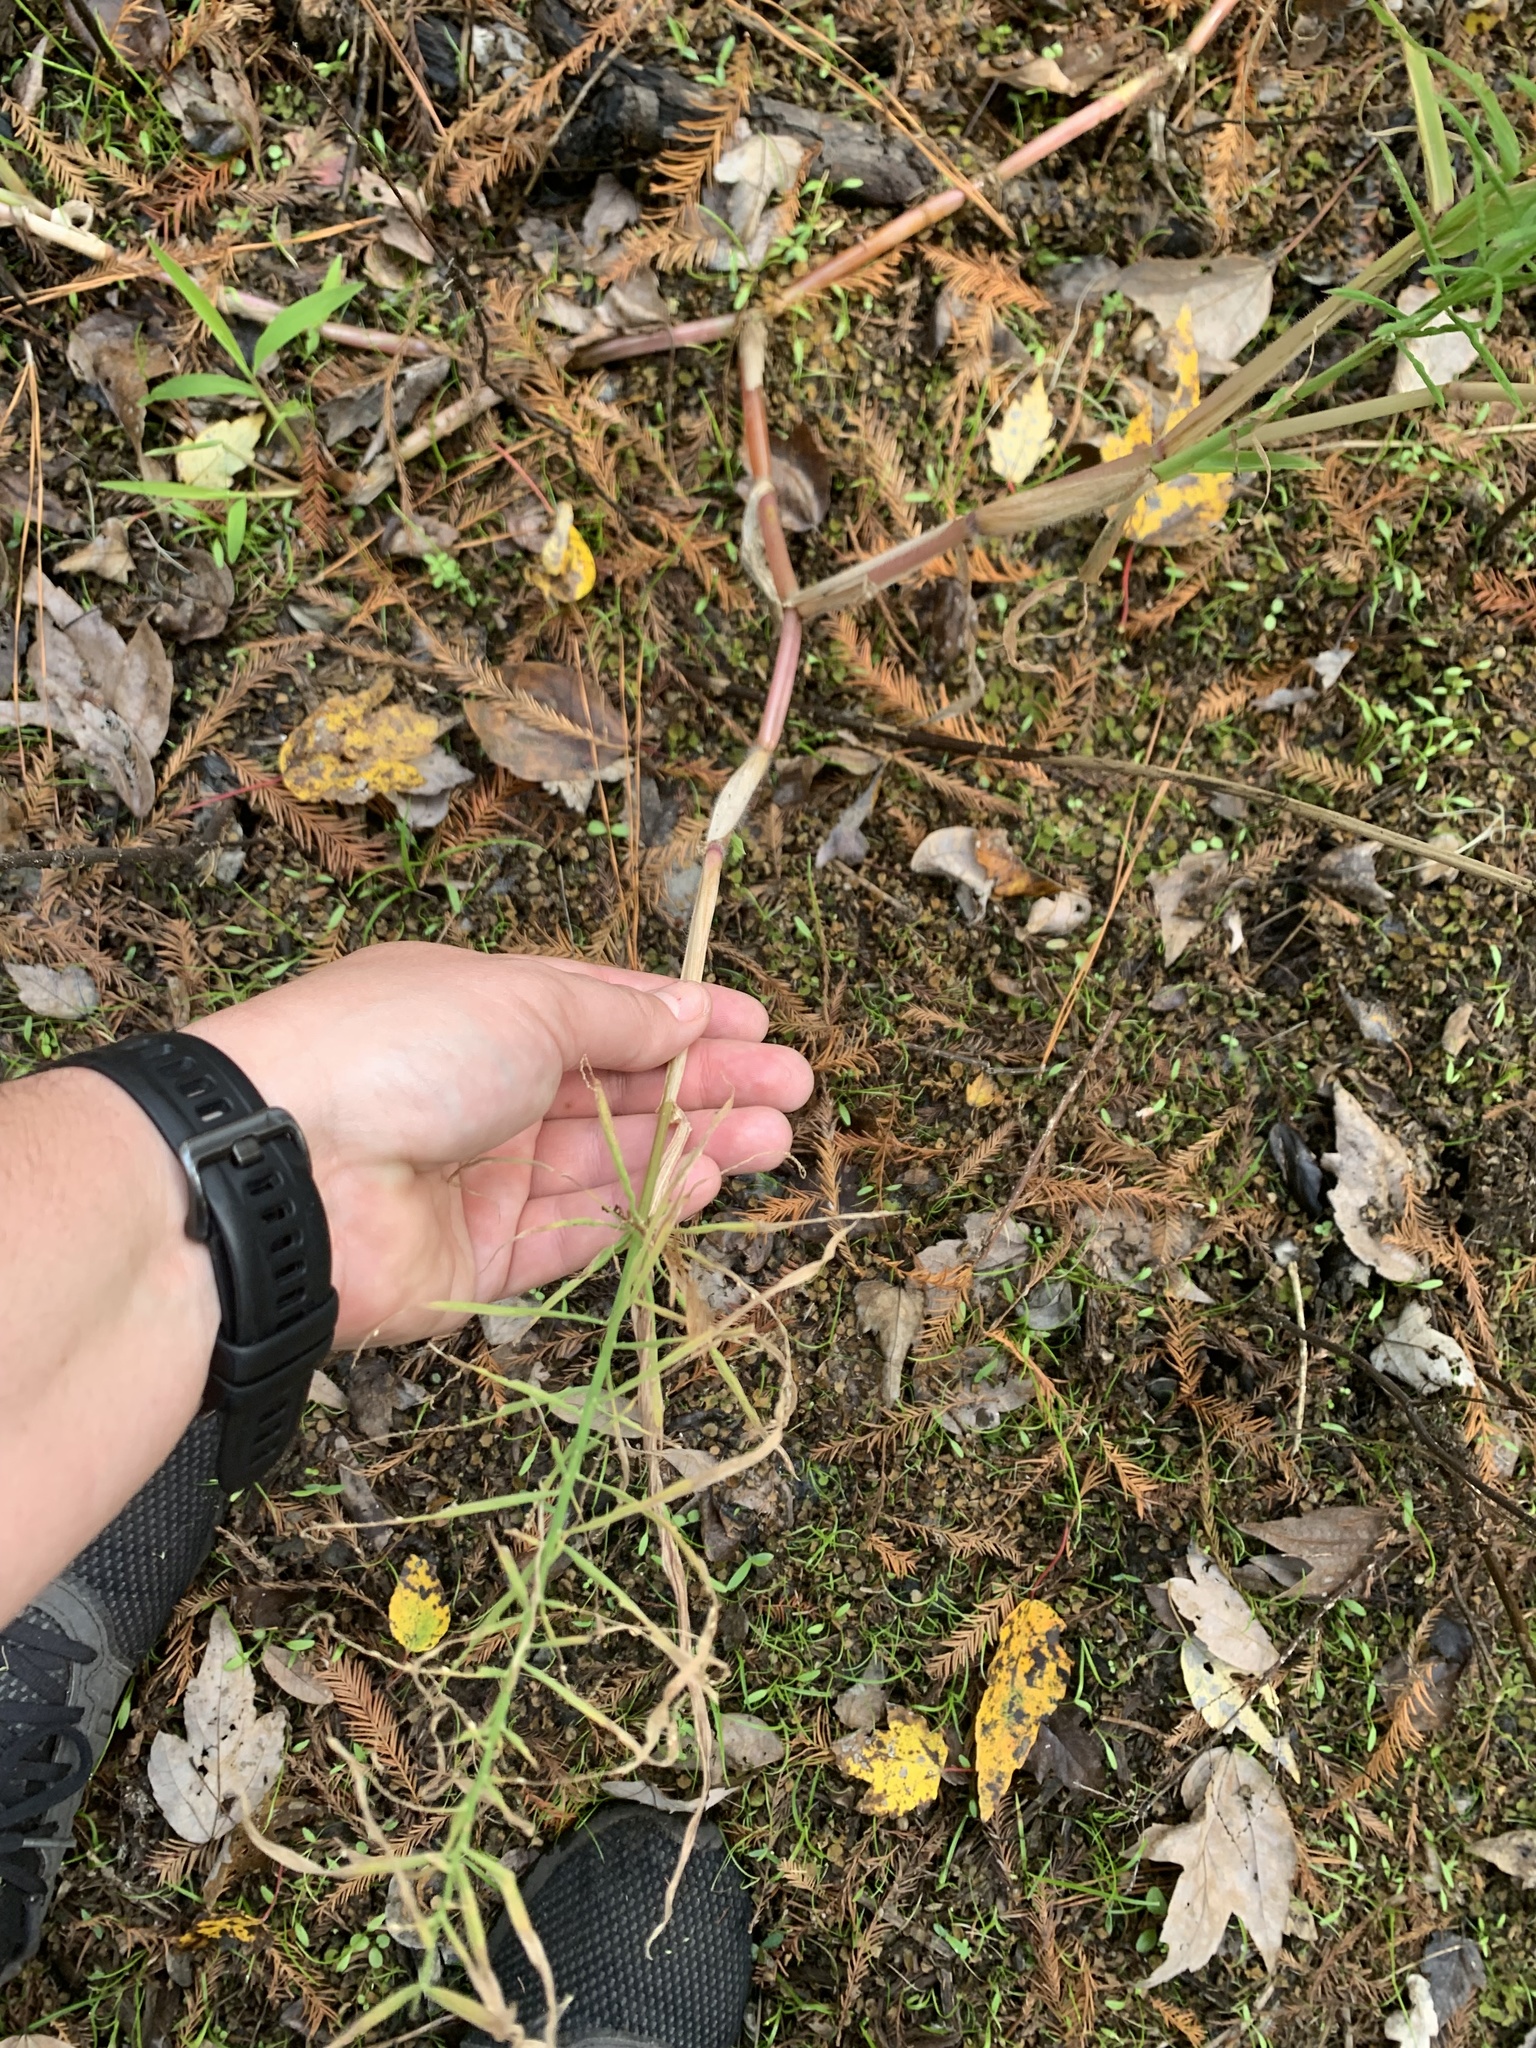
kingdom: Plantae
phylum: Tracheophyta
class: Liliopsida
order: Poales
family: Poaceae
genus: Paspalum
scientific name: Paspalum repens
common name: Water paspalum
